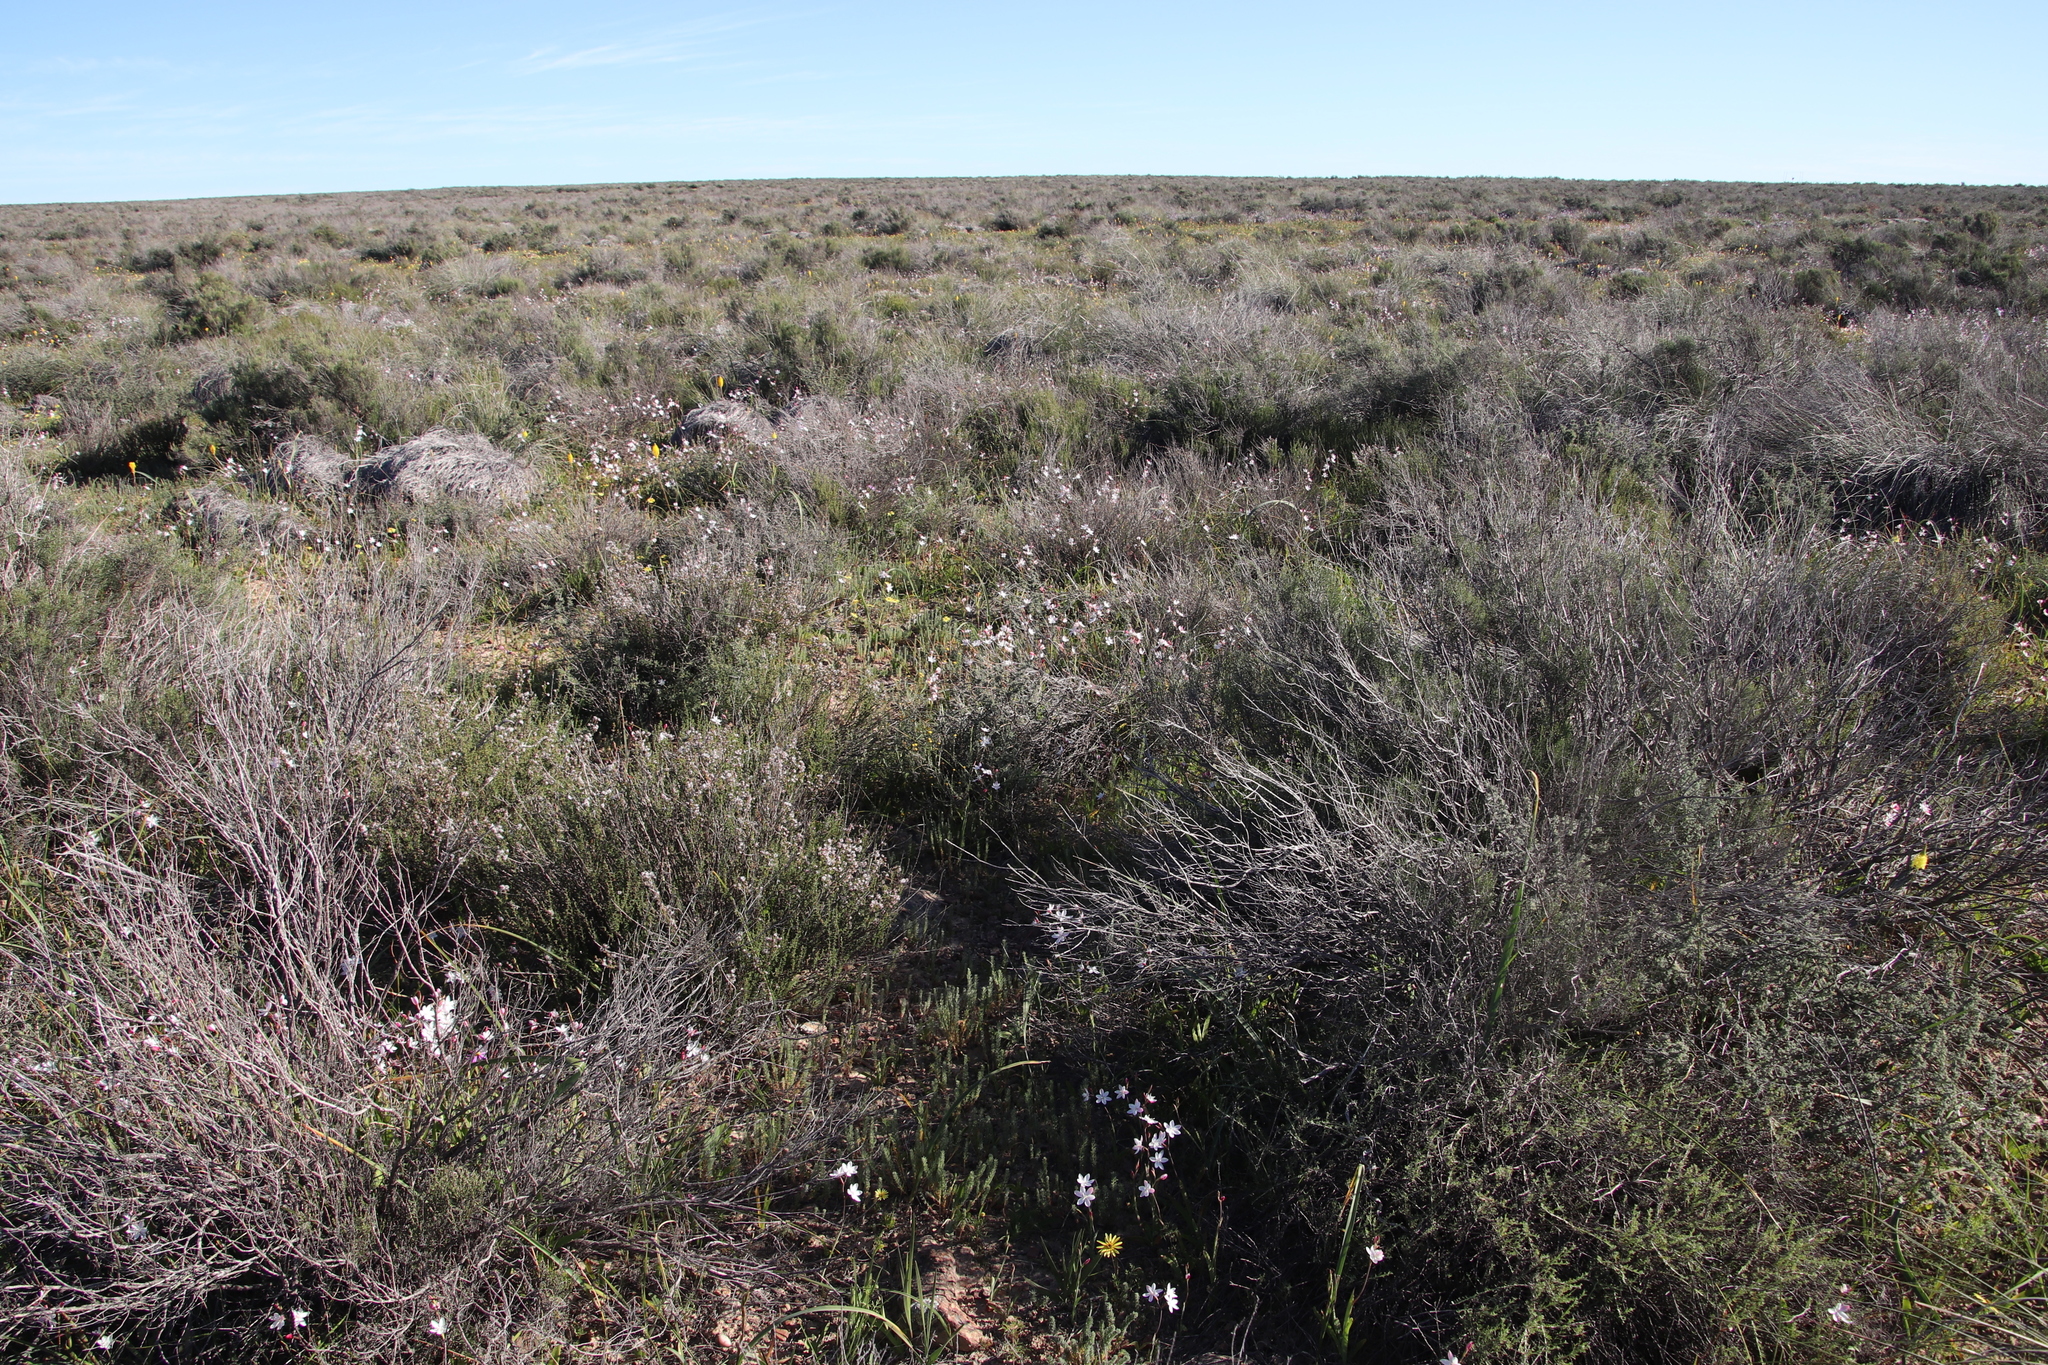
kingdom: Plantae
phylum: Tracheophyta
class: Liliopsida
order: Asparagales
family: Iridaceae
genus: Hesperantha
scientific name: Hesperantha cucullata
